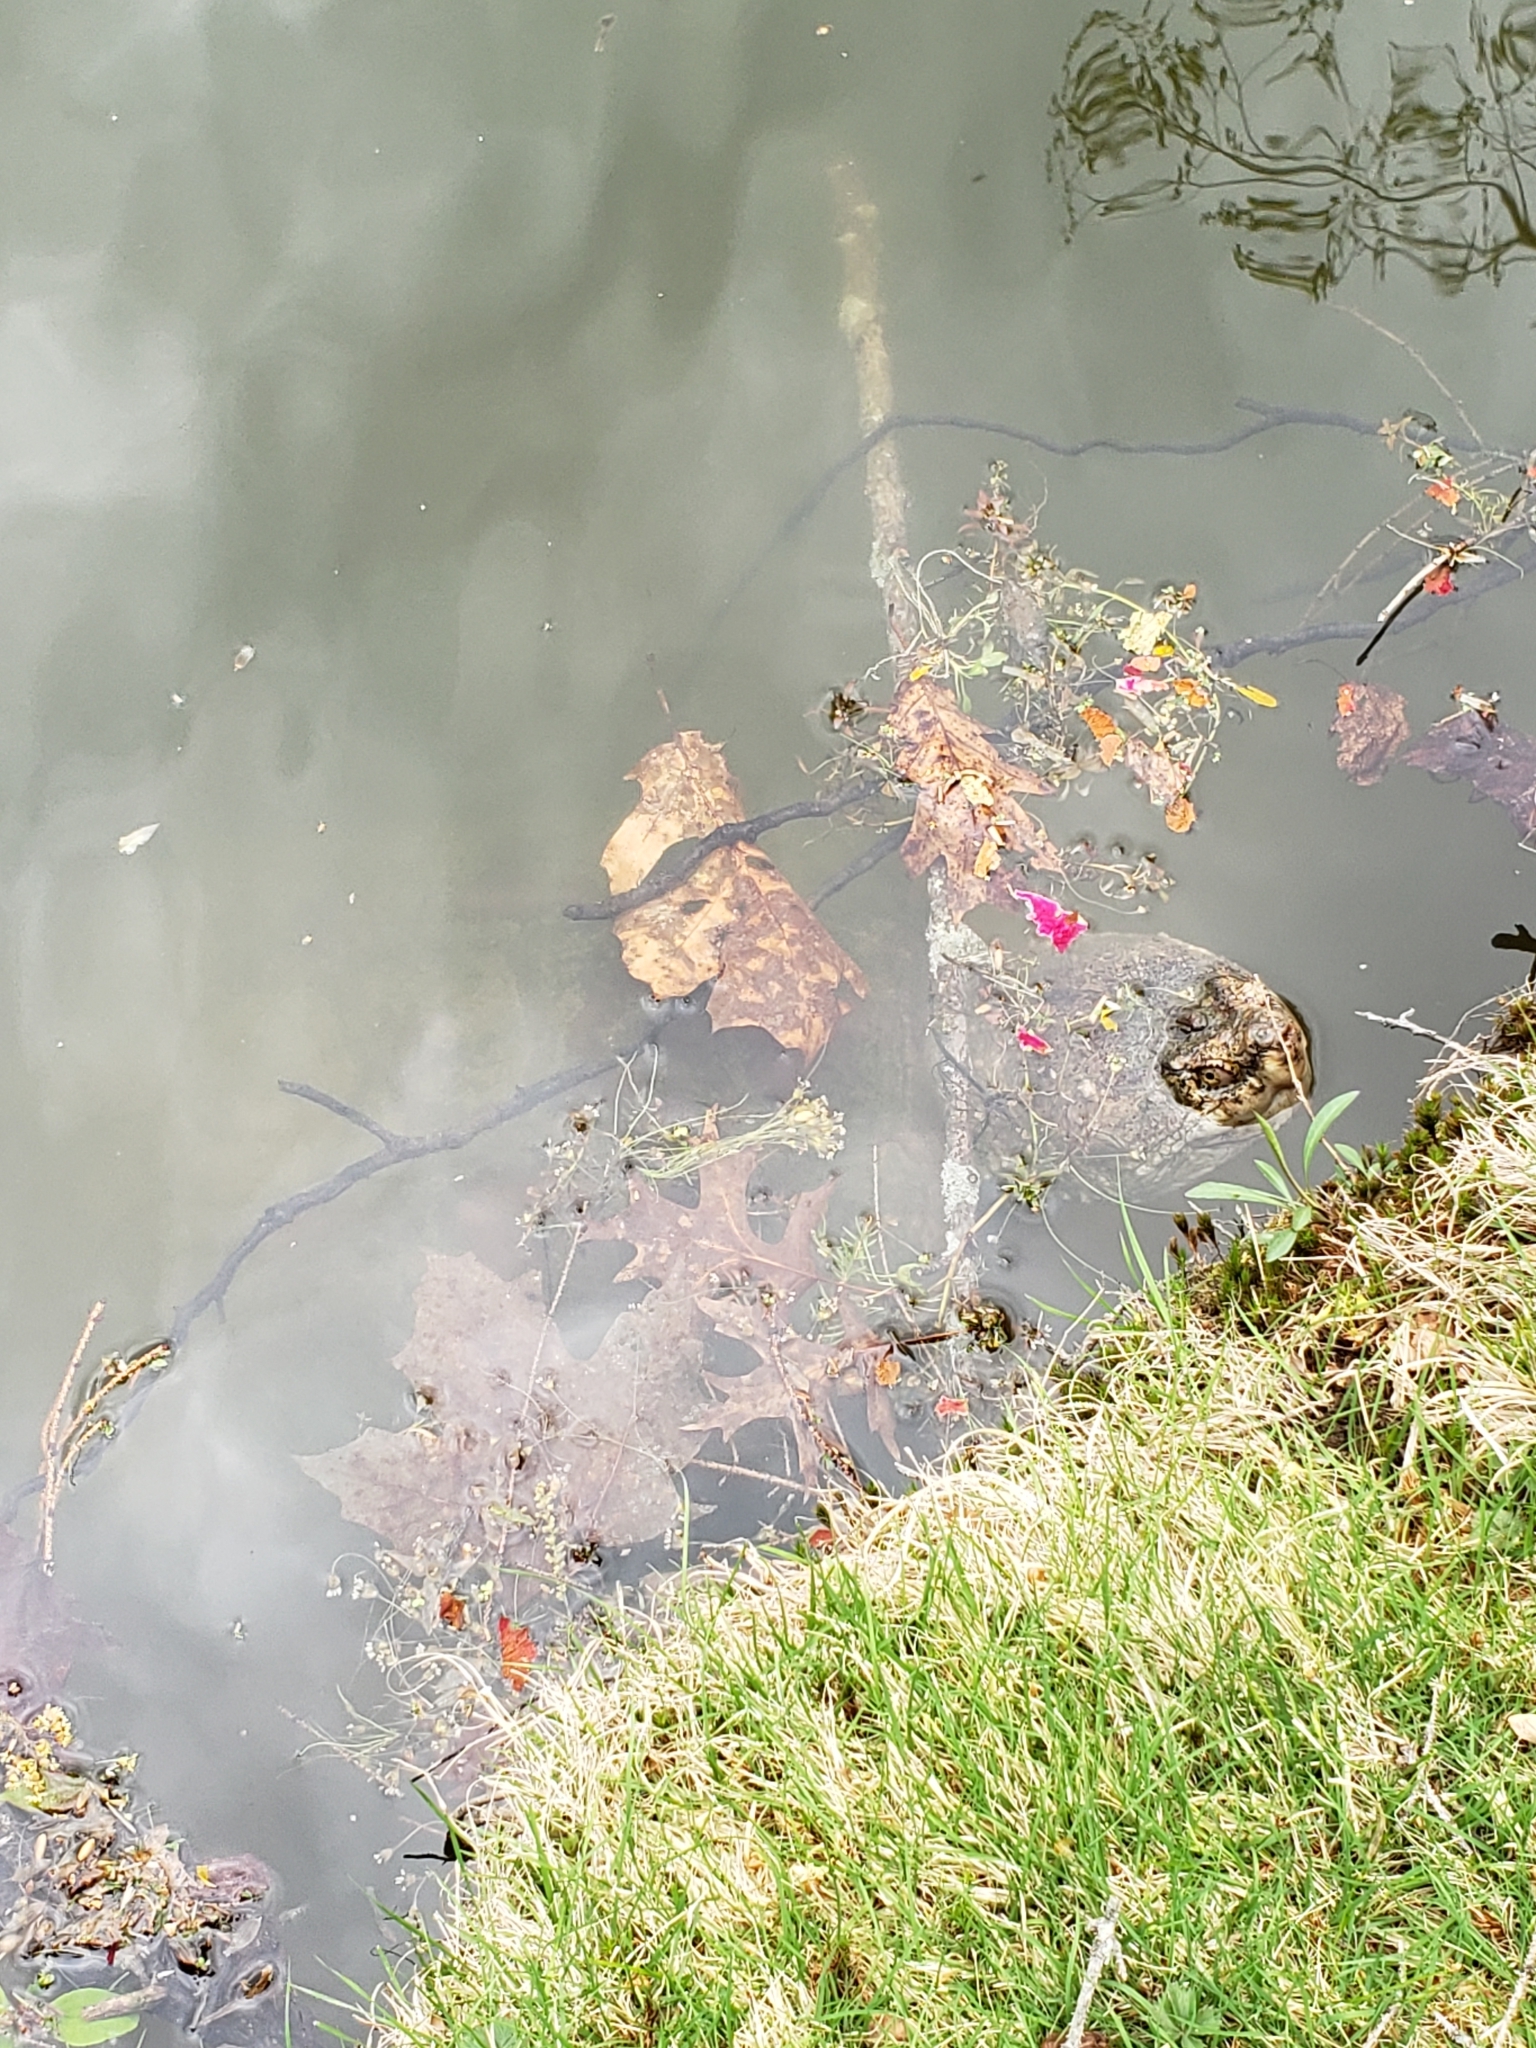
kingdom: Animalia
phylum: Chordata
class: Testudines
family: Chelydridae
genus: Chelydra
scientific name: Chelydra serpentina
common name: Common snapping turtle
